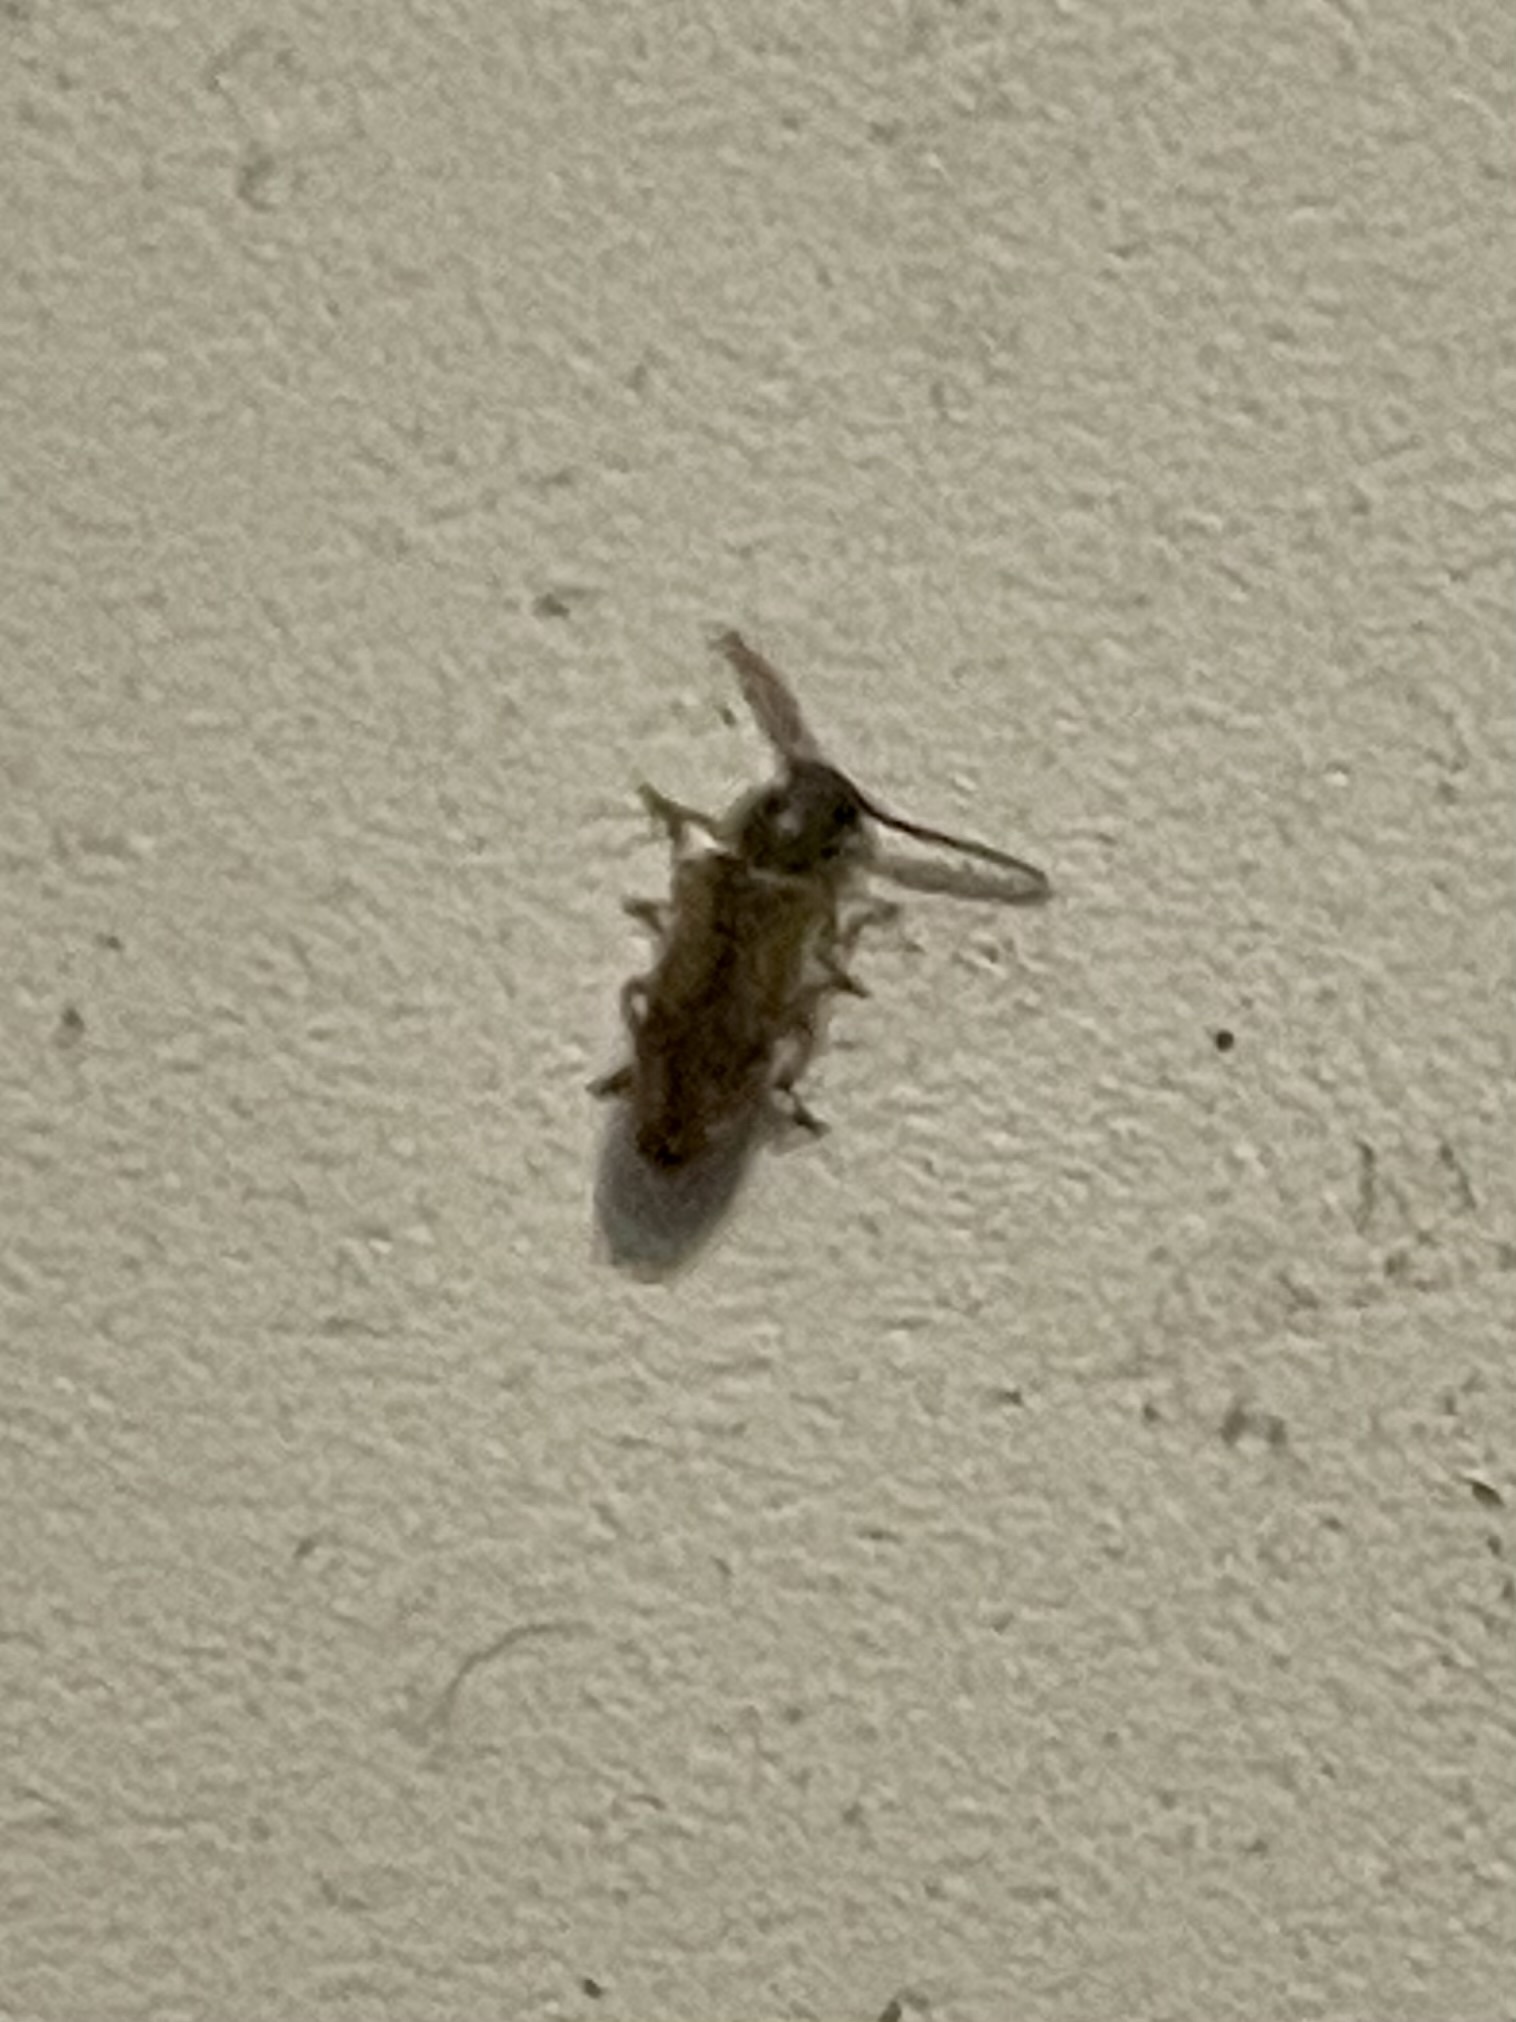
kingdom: Animalia
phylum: Arthropoda
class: Insecta
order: Coleoptera
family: Oedemeridae
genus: Polypria
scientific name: Polypria
